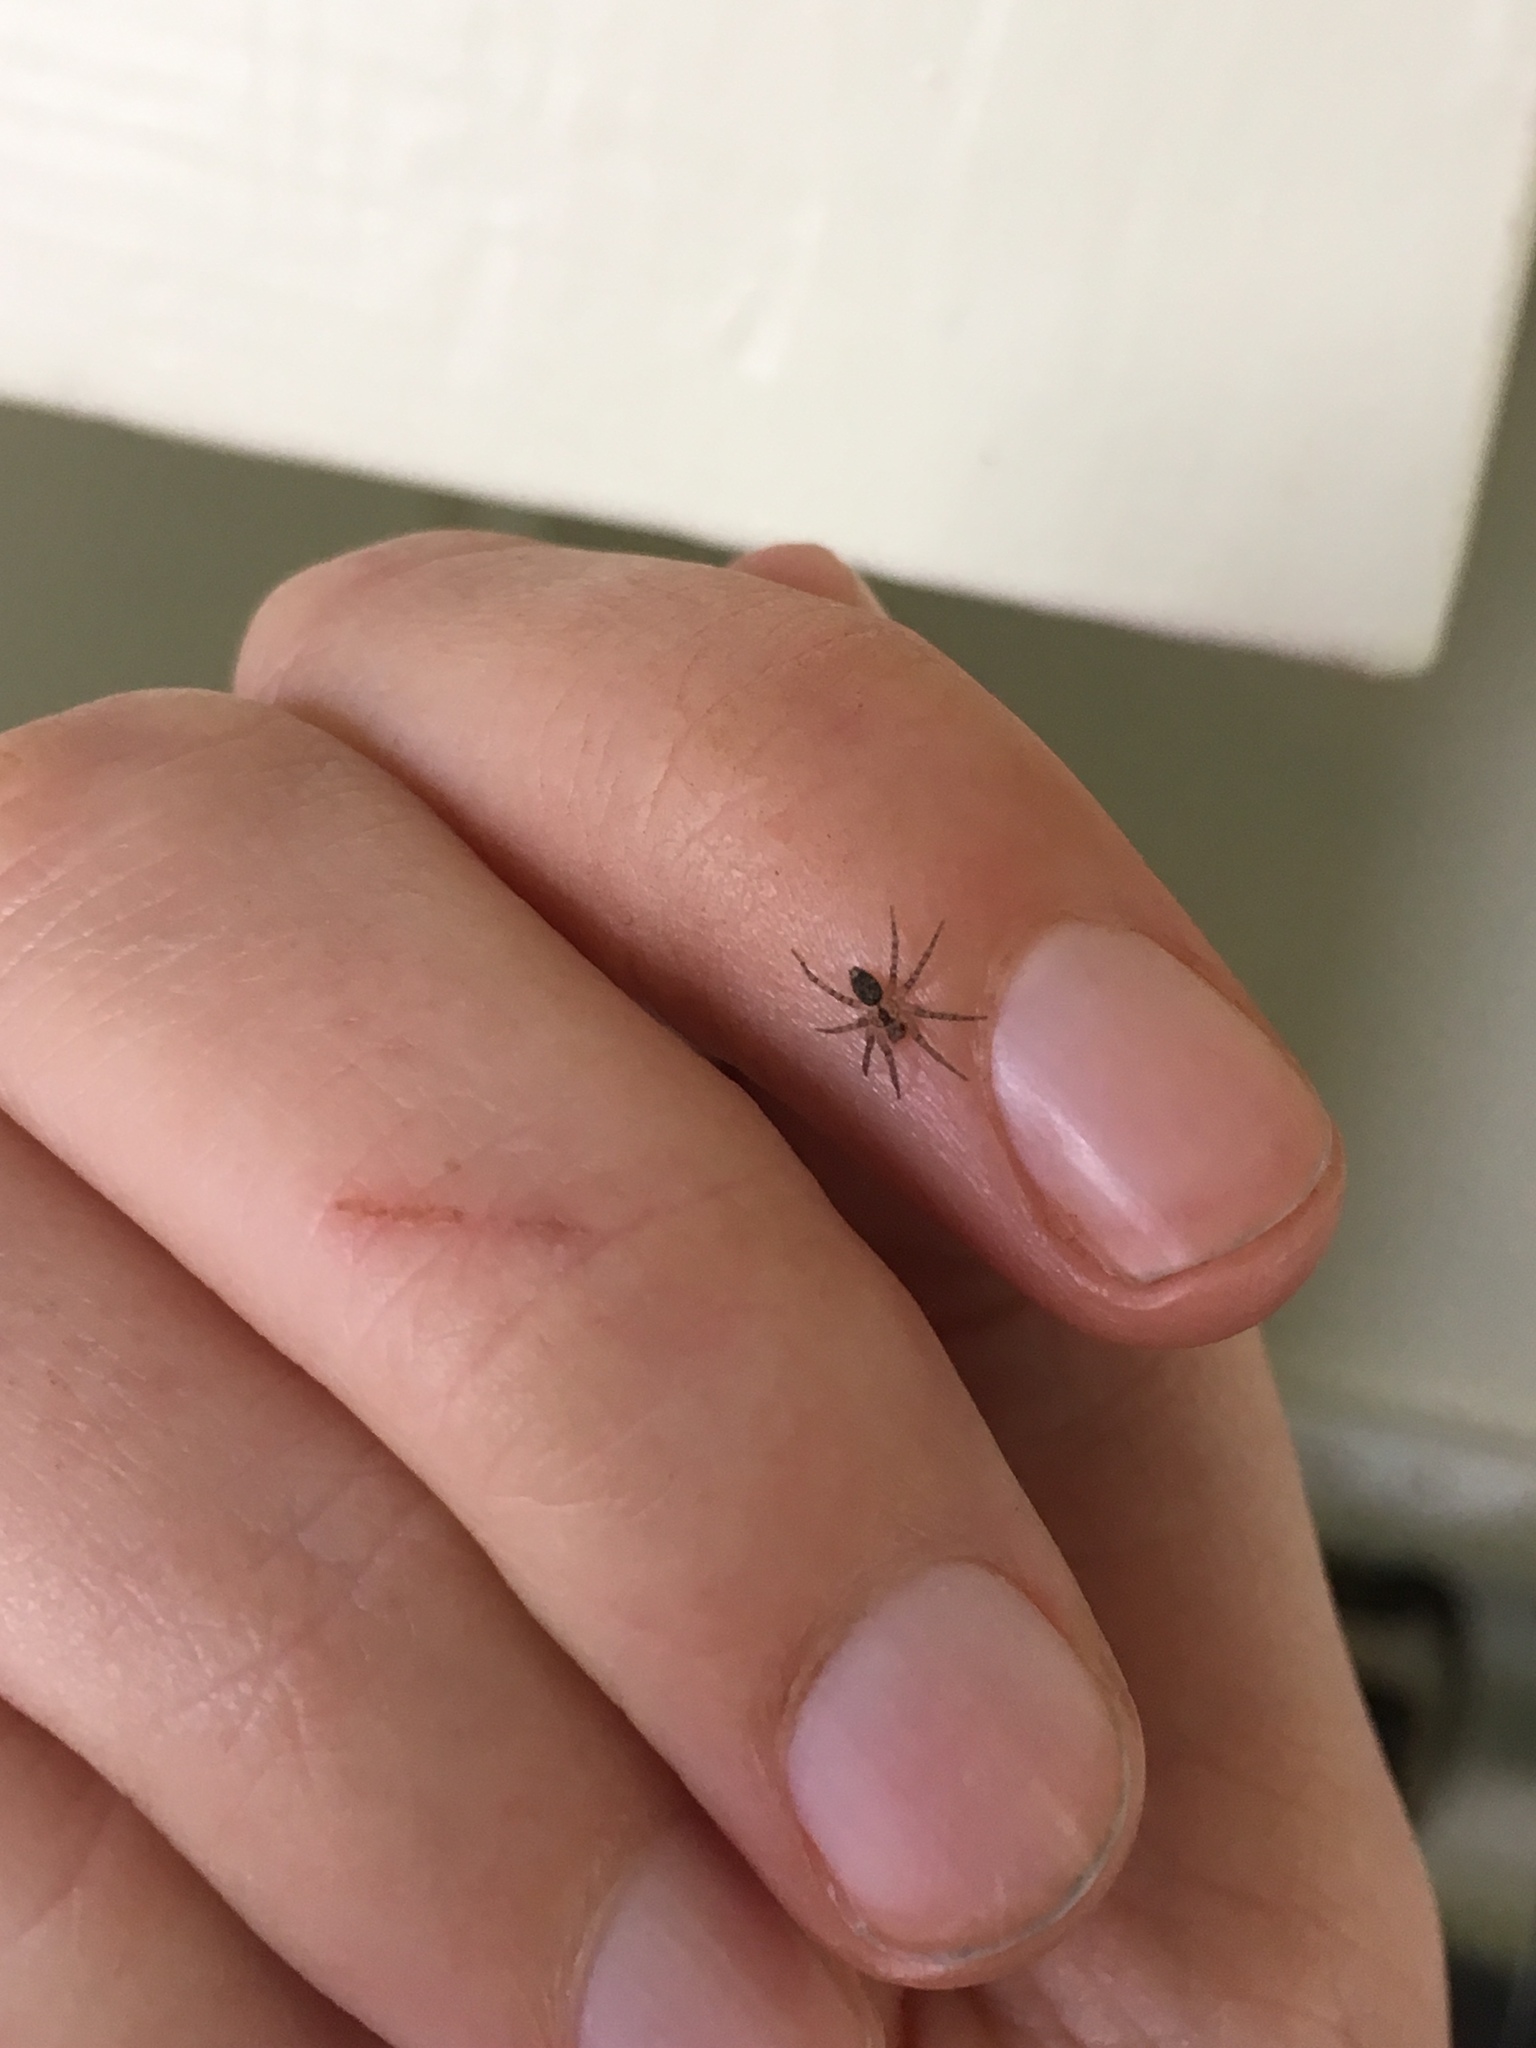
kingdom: Animalia
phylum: Arthropoda
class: Arachnida
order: Araneae
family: Oecobiidae
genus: Oecobius
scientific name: Oecobius navus
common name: Flatmesh weaver
